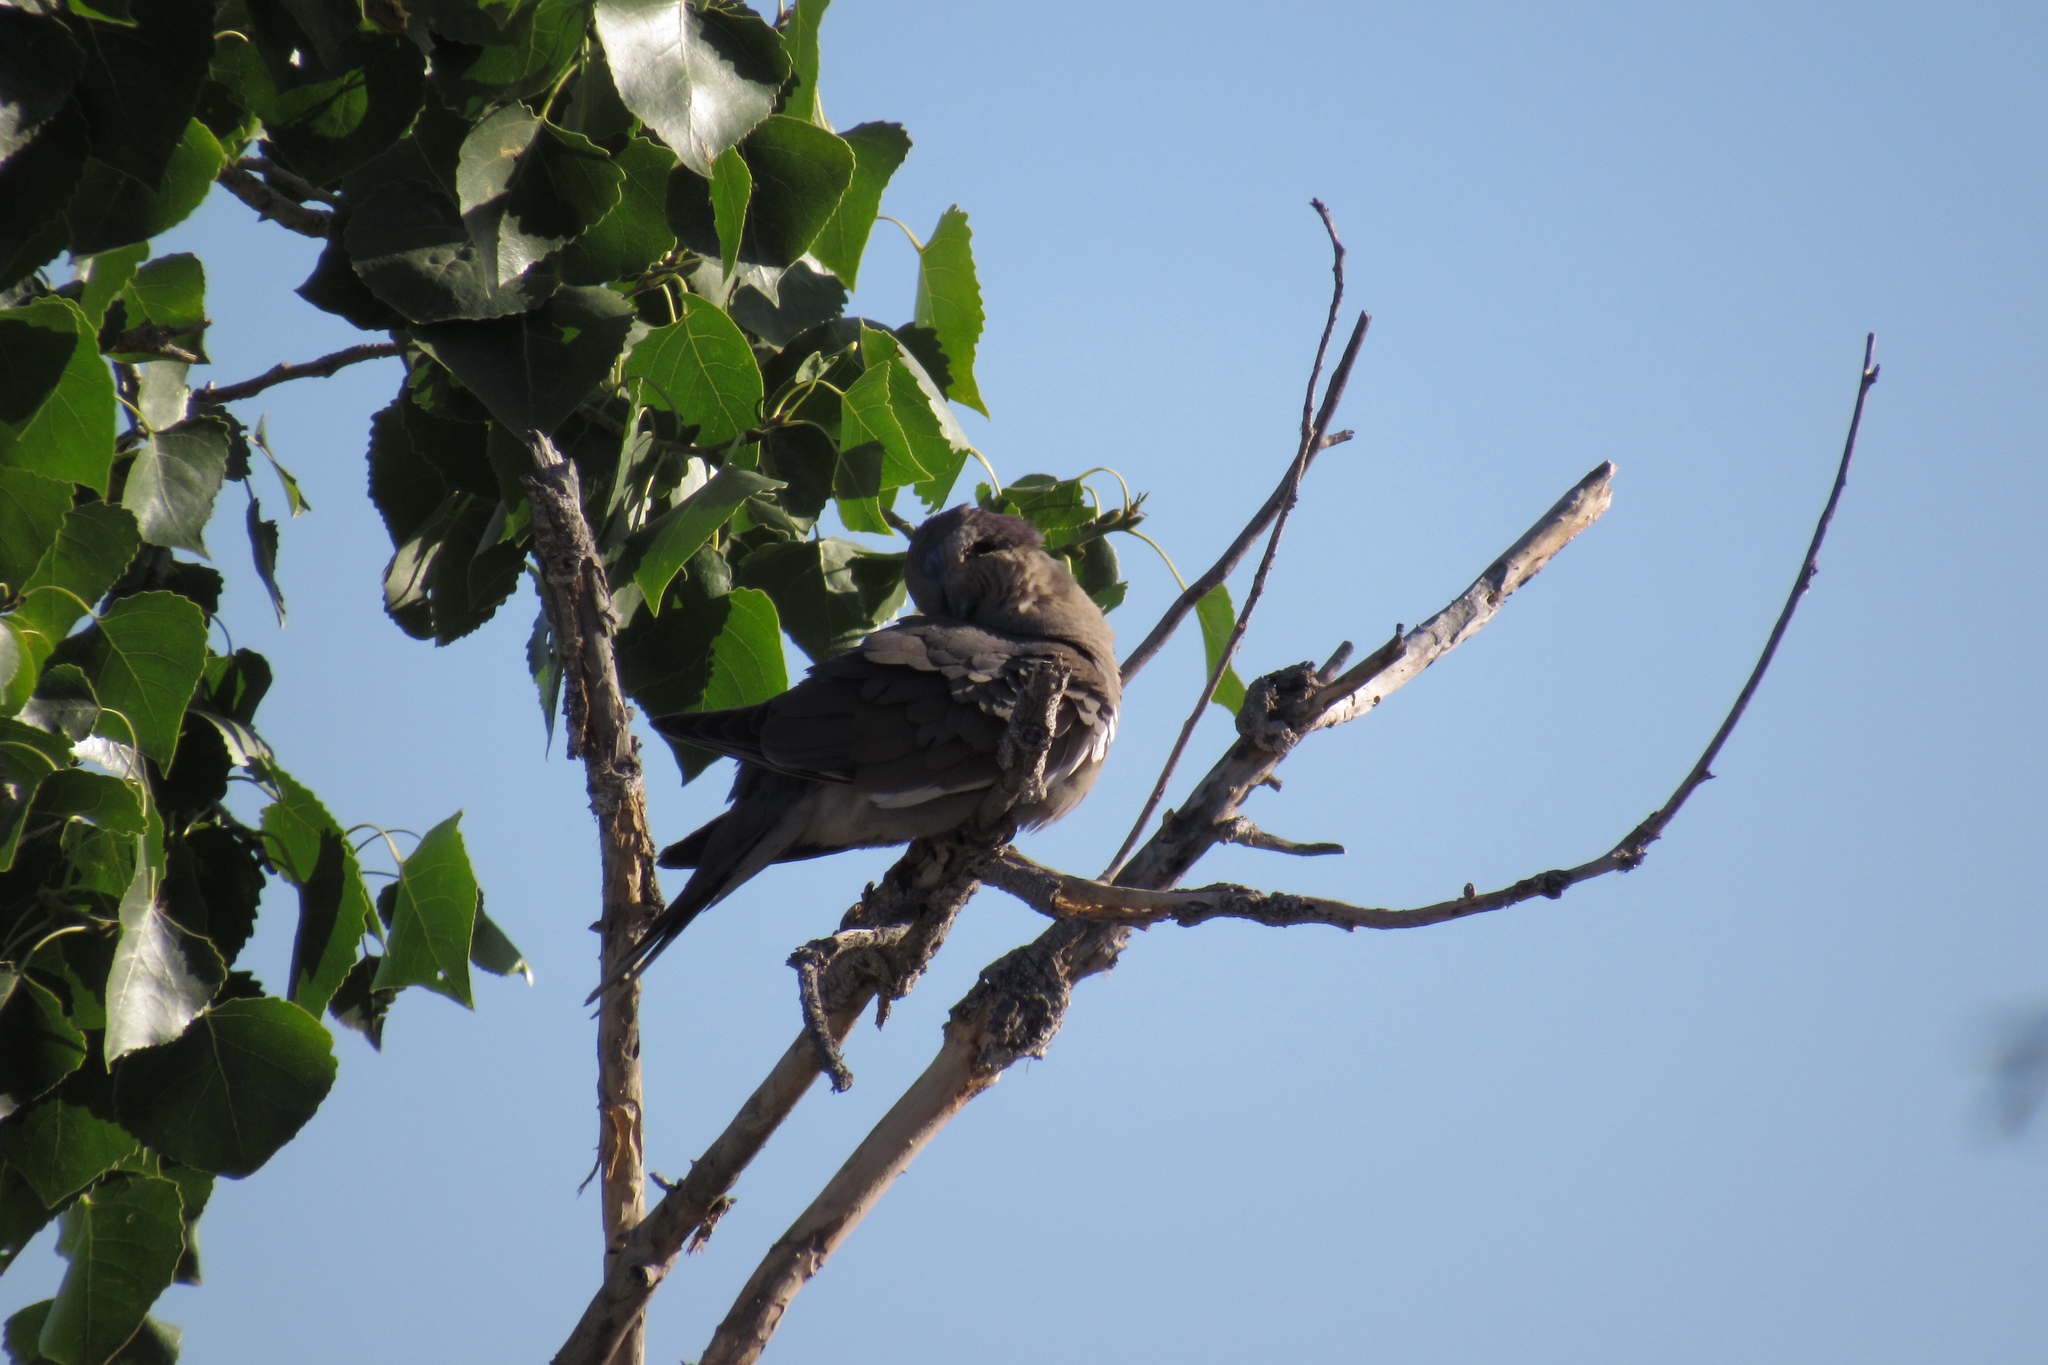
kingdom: Animalia
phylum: Chordata
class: Aves
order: Columbiformes
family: Columbidae
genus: Zenaida
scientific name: Zenaida asiatica
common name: White-winged dove
